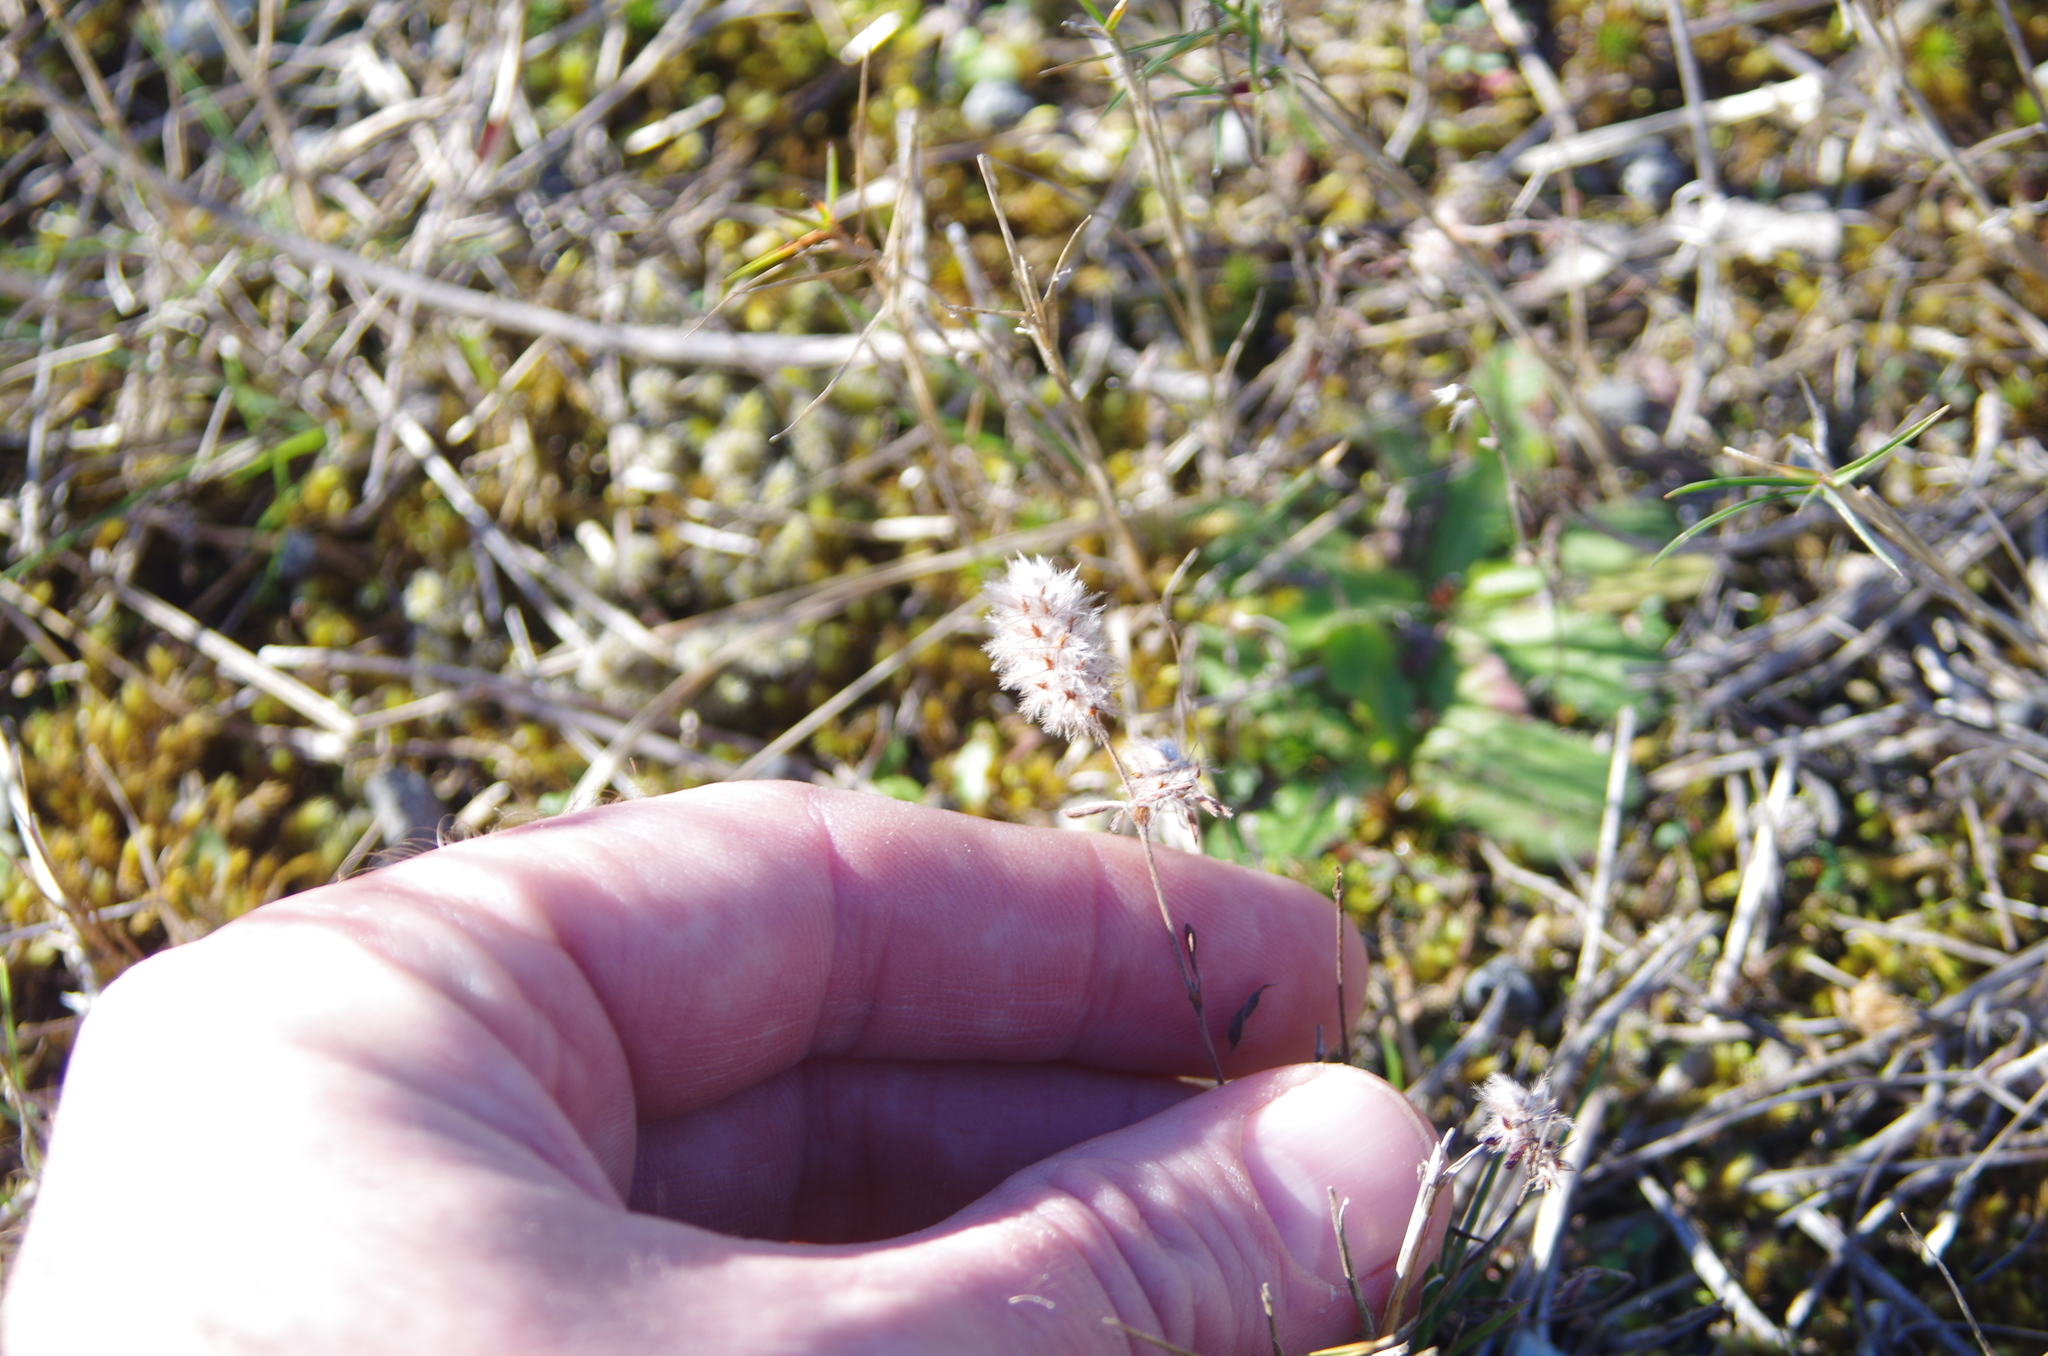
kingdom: Plantae
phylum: Tracheophyta
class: Magnoliopsida
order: Fabales
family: Fabaceae
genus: Trifolium
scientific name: Trifolium arvense
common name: Hare's-foot clover
